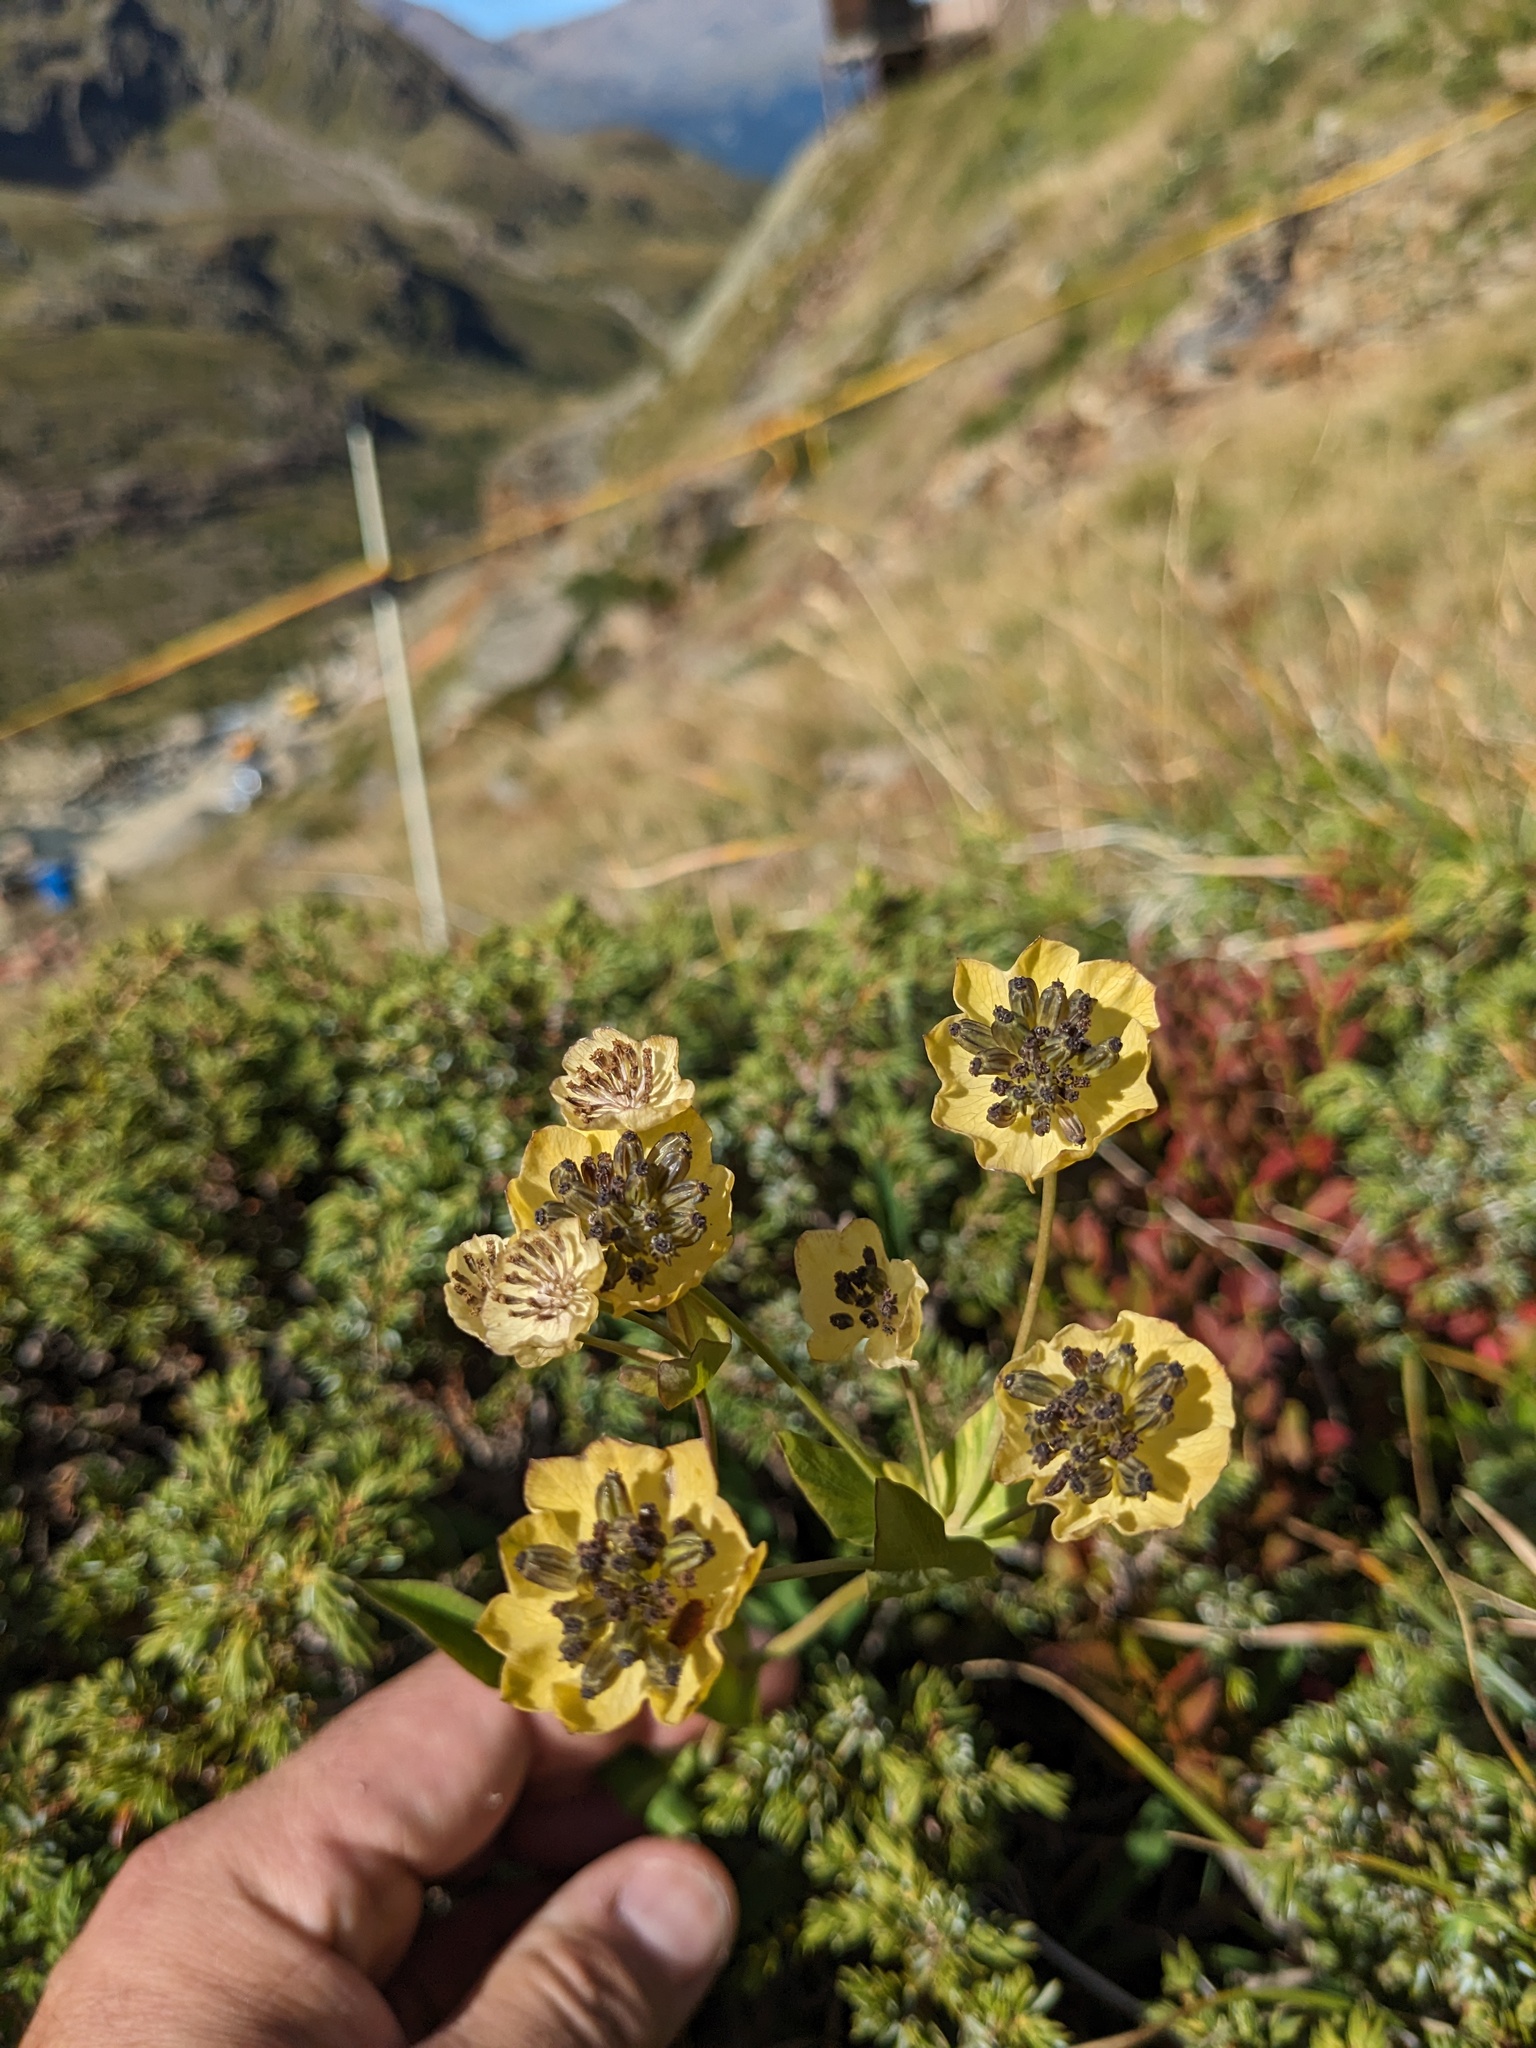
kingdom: Plantae
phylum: Tracheophyta
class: Magnoliopsida
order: Apiales
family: Apiaceae
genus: Bupleurum
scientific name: Bupleurum stellatum
